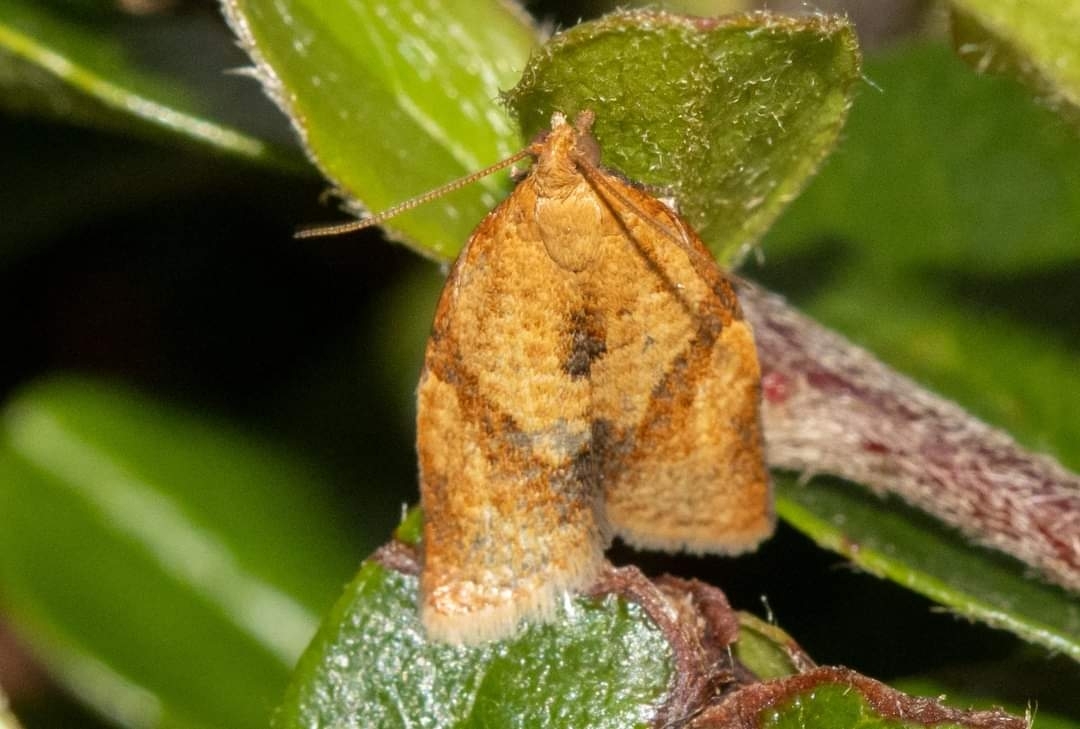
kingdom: Animalia
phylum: Arthropoda
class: Insecta
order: Lepidoptera
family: Tortricidae
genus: Clepsis
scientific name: Clepsis consimilana
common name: Privet tortrix
